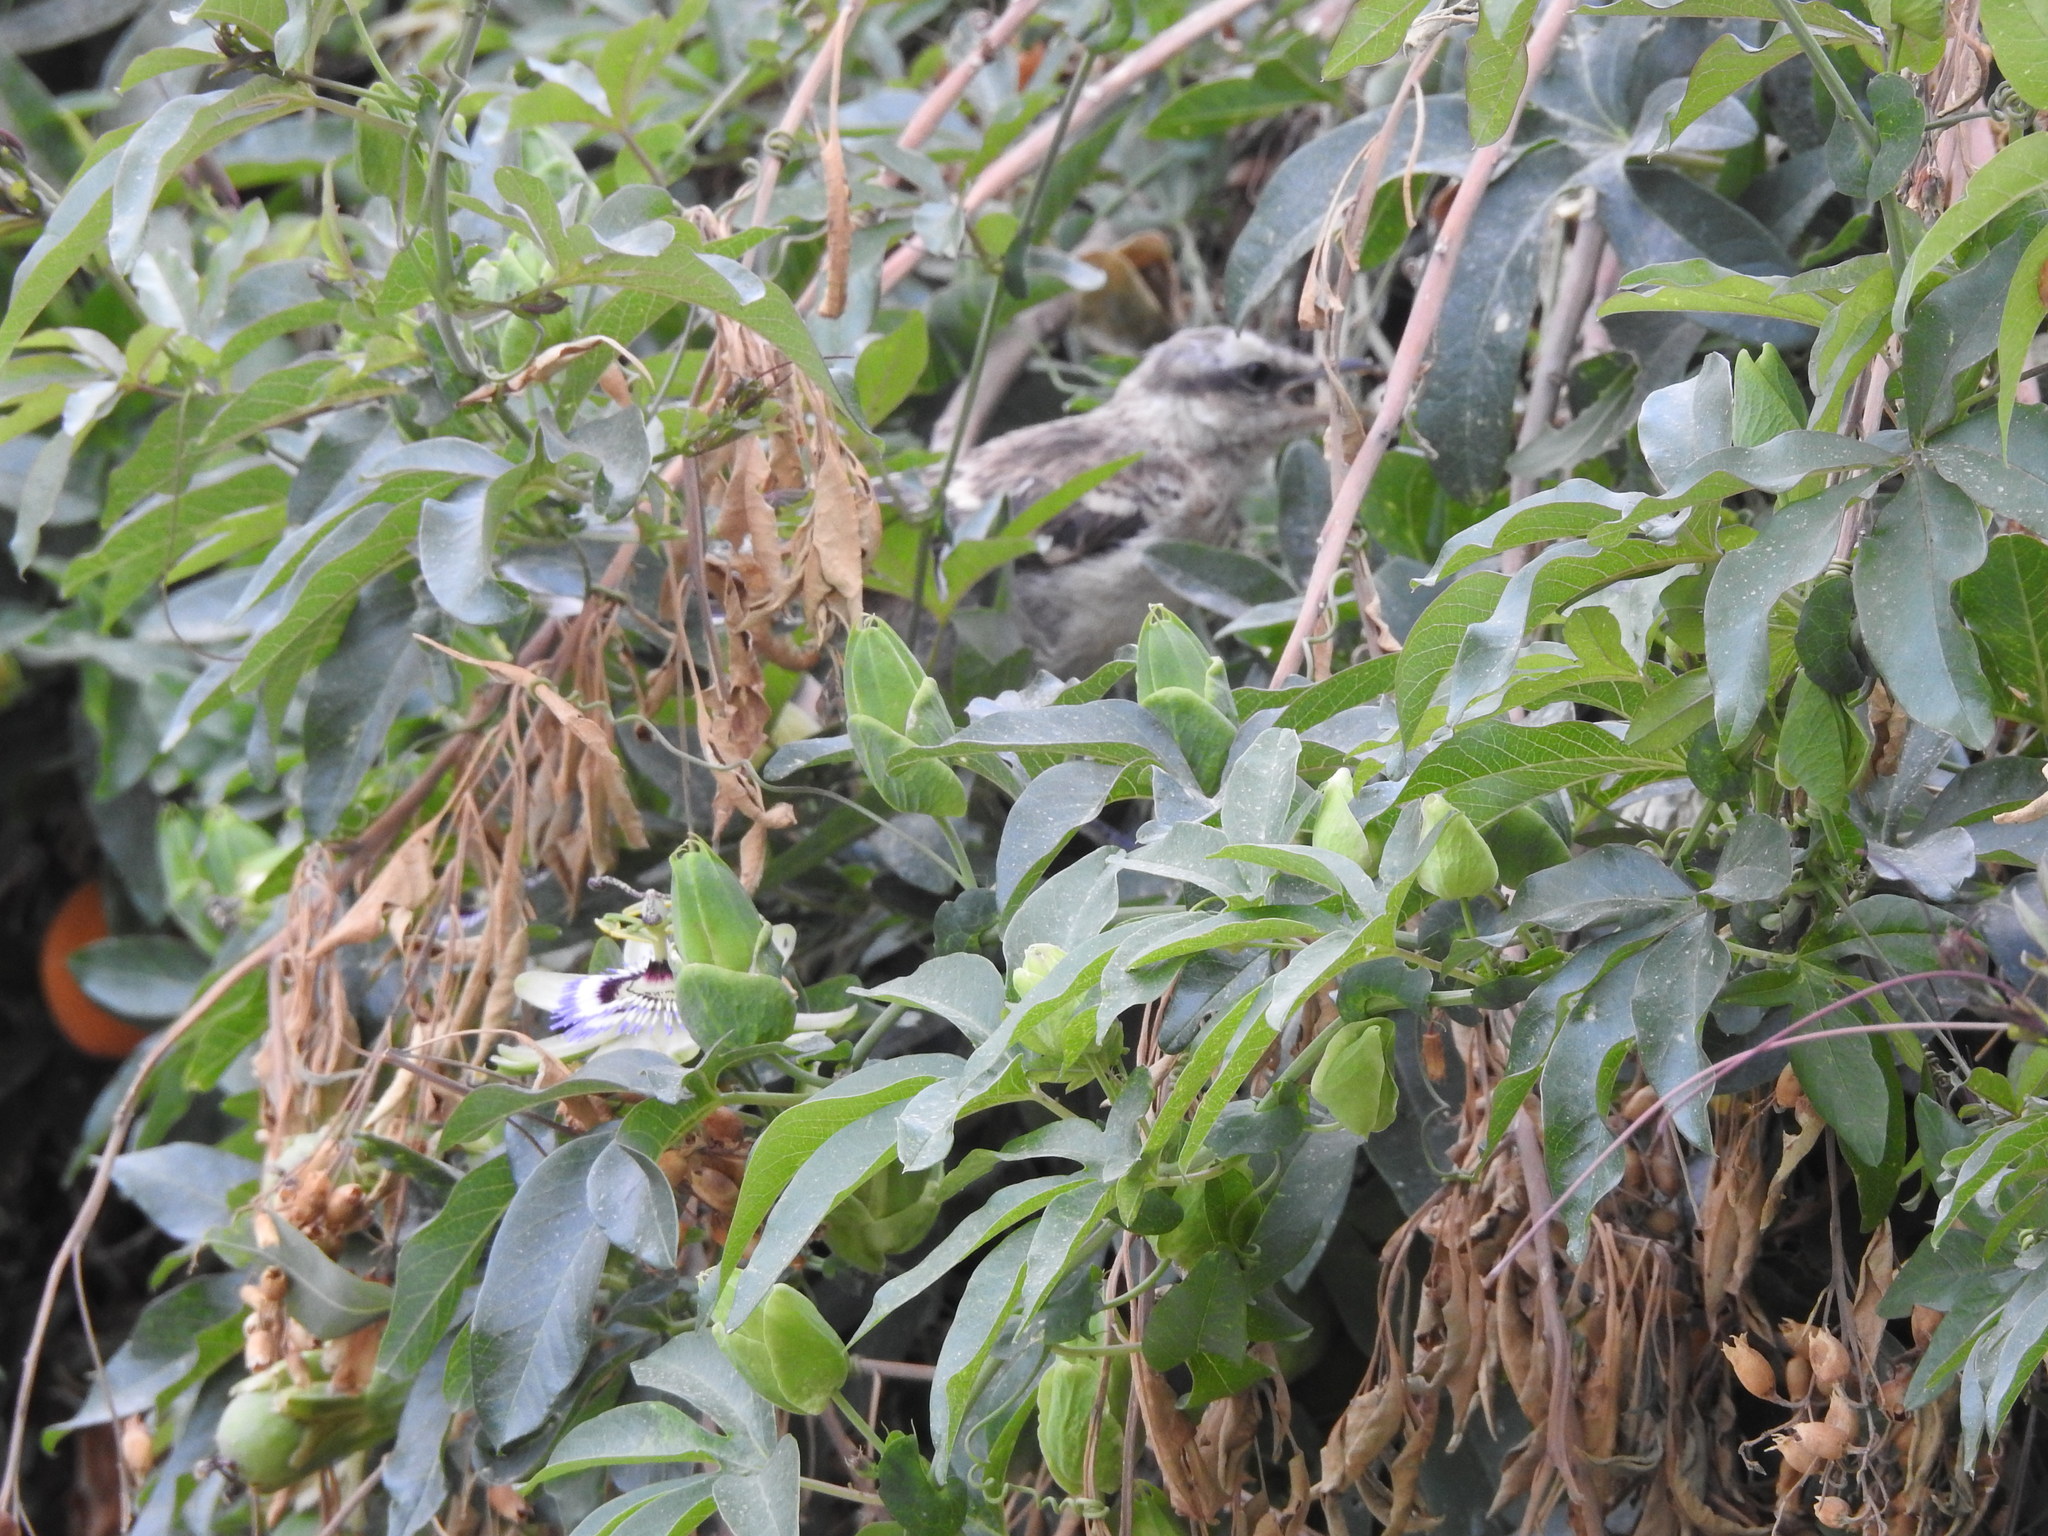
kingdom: Animalia
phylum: Chordata
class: Aves
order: Passeriformes
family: Mimidae
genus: Mimus
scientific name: Mimus saturninus
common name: Chalk-browed mockingbird
